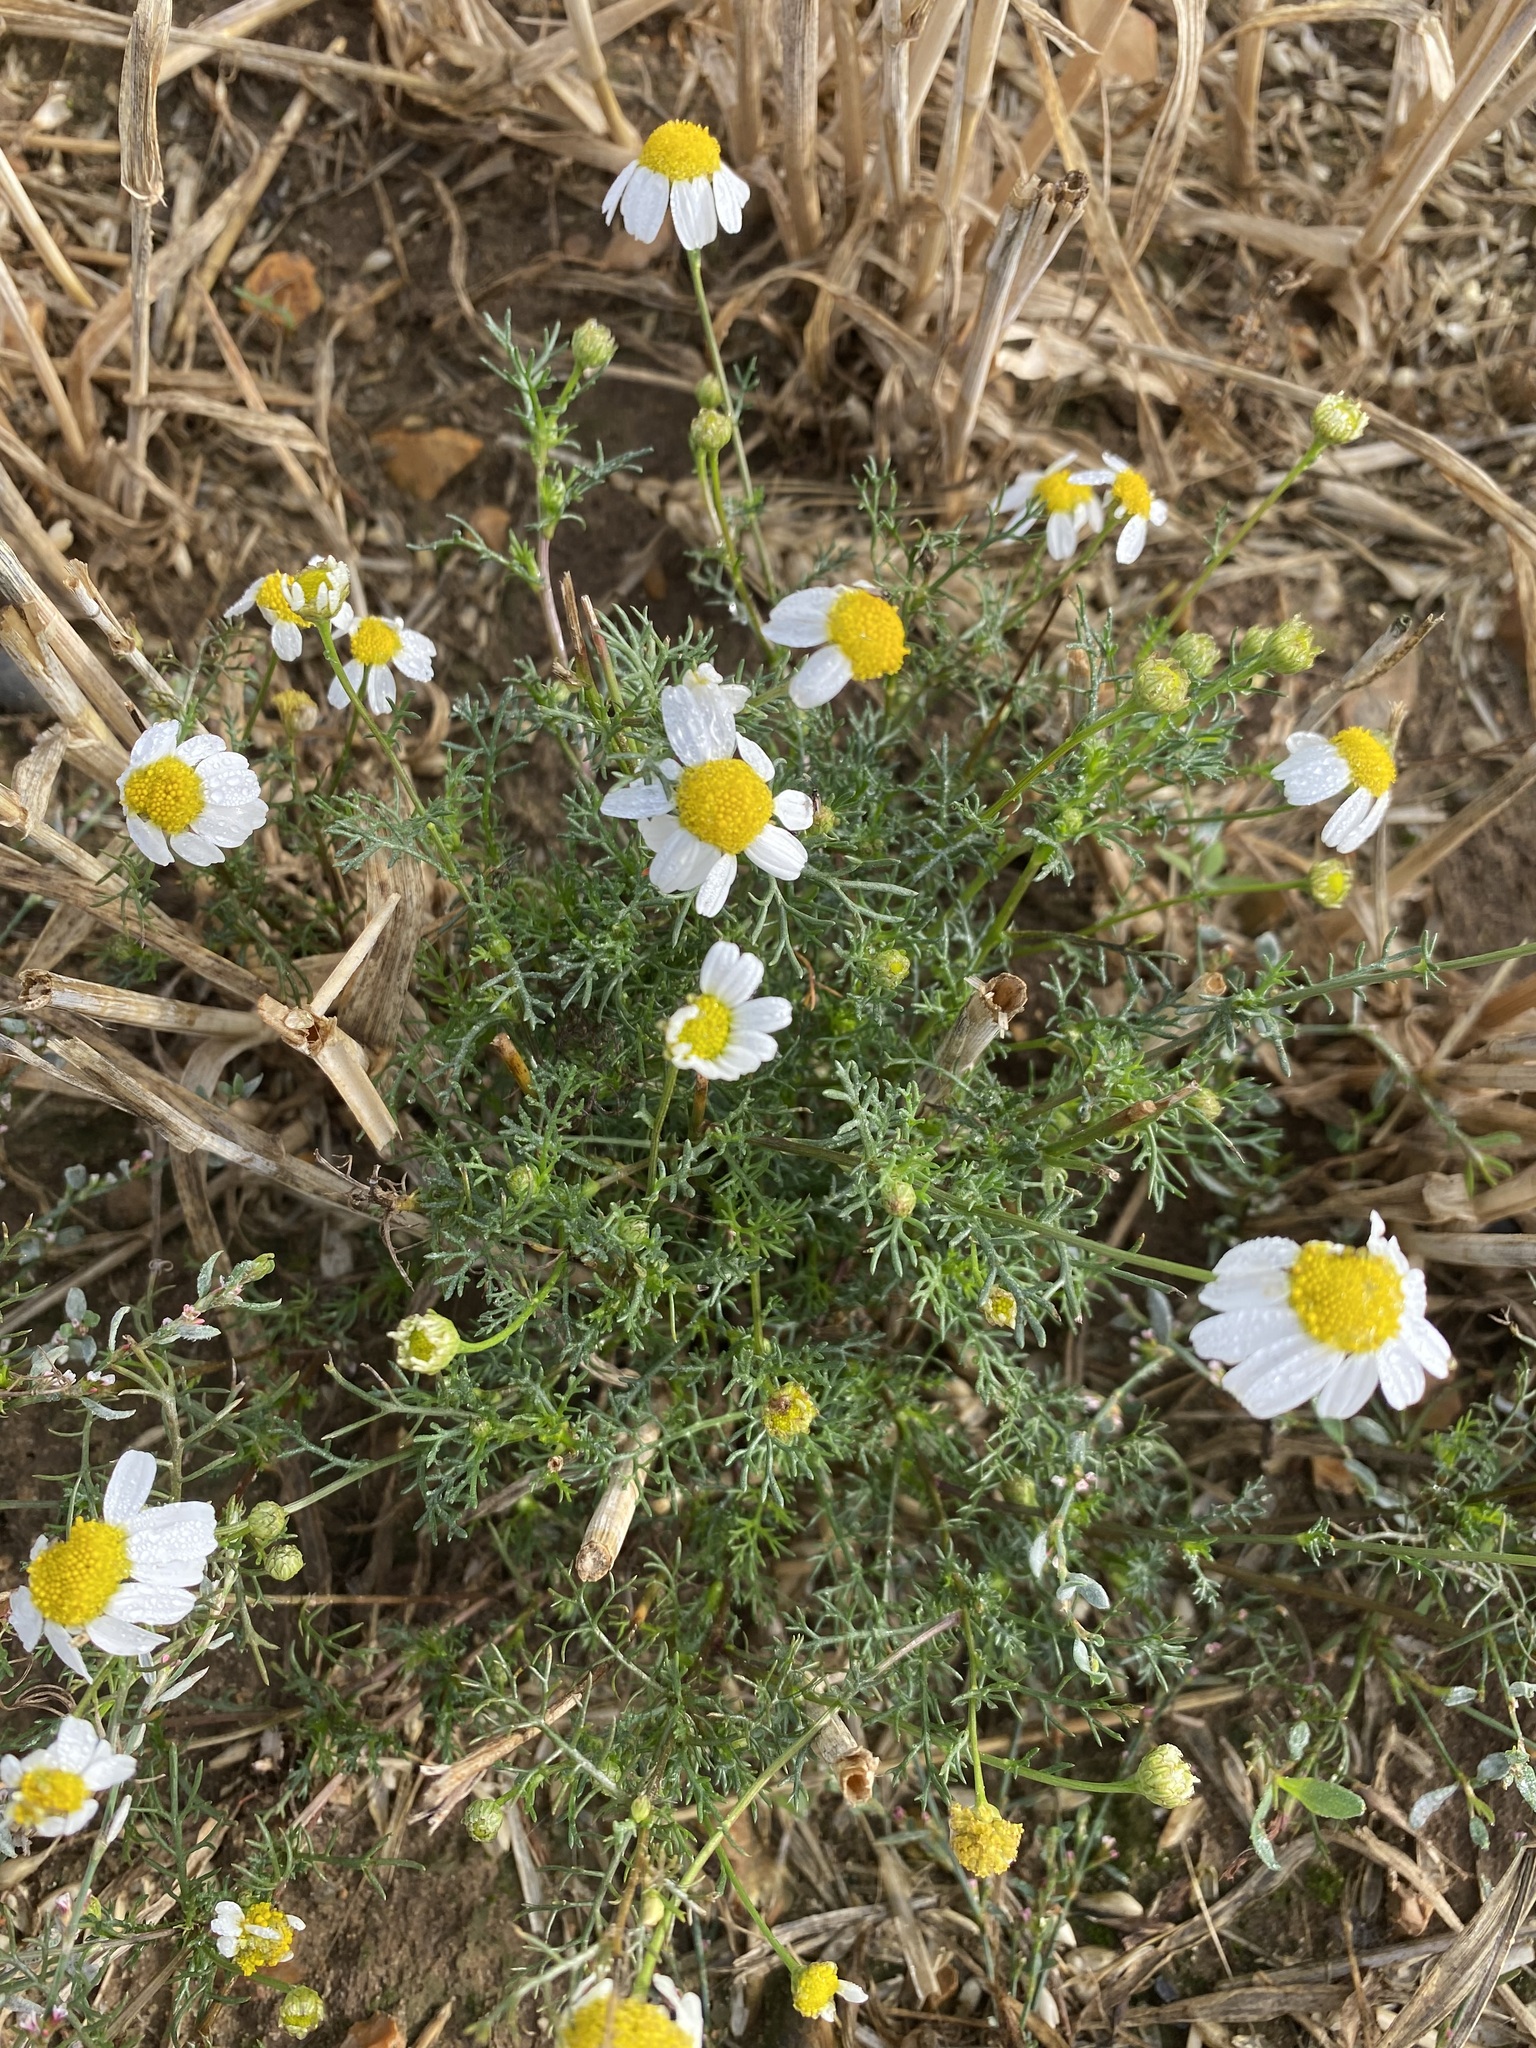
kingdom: Plantae
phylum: Tracheophyta
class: Magnoliopsida
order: Asterales
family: Asteraceae
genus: Matricaria
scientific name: Matricaria chamomilla
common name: Scented mayweed
